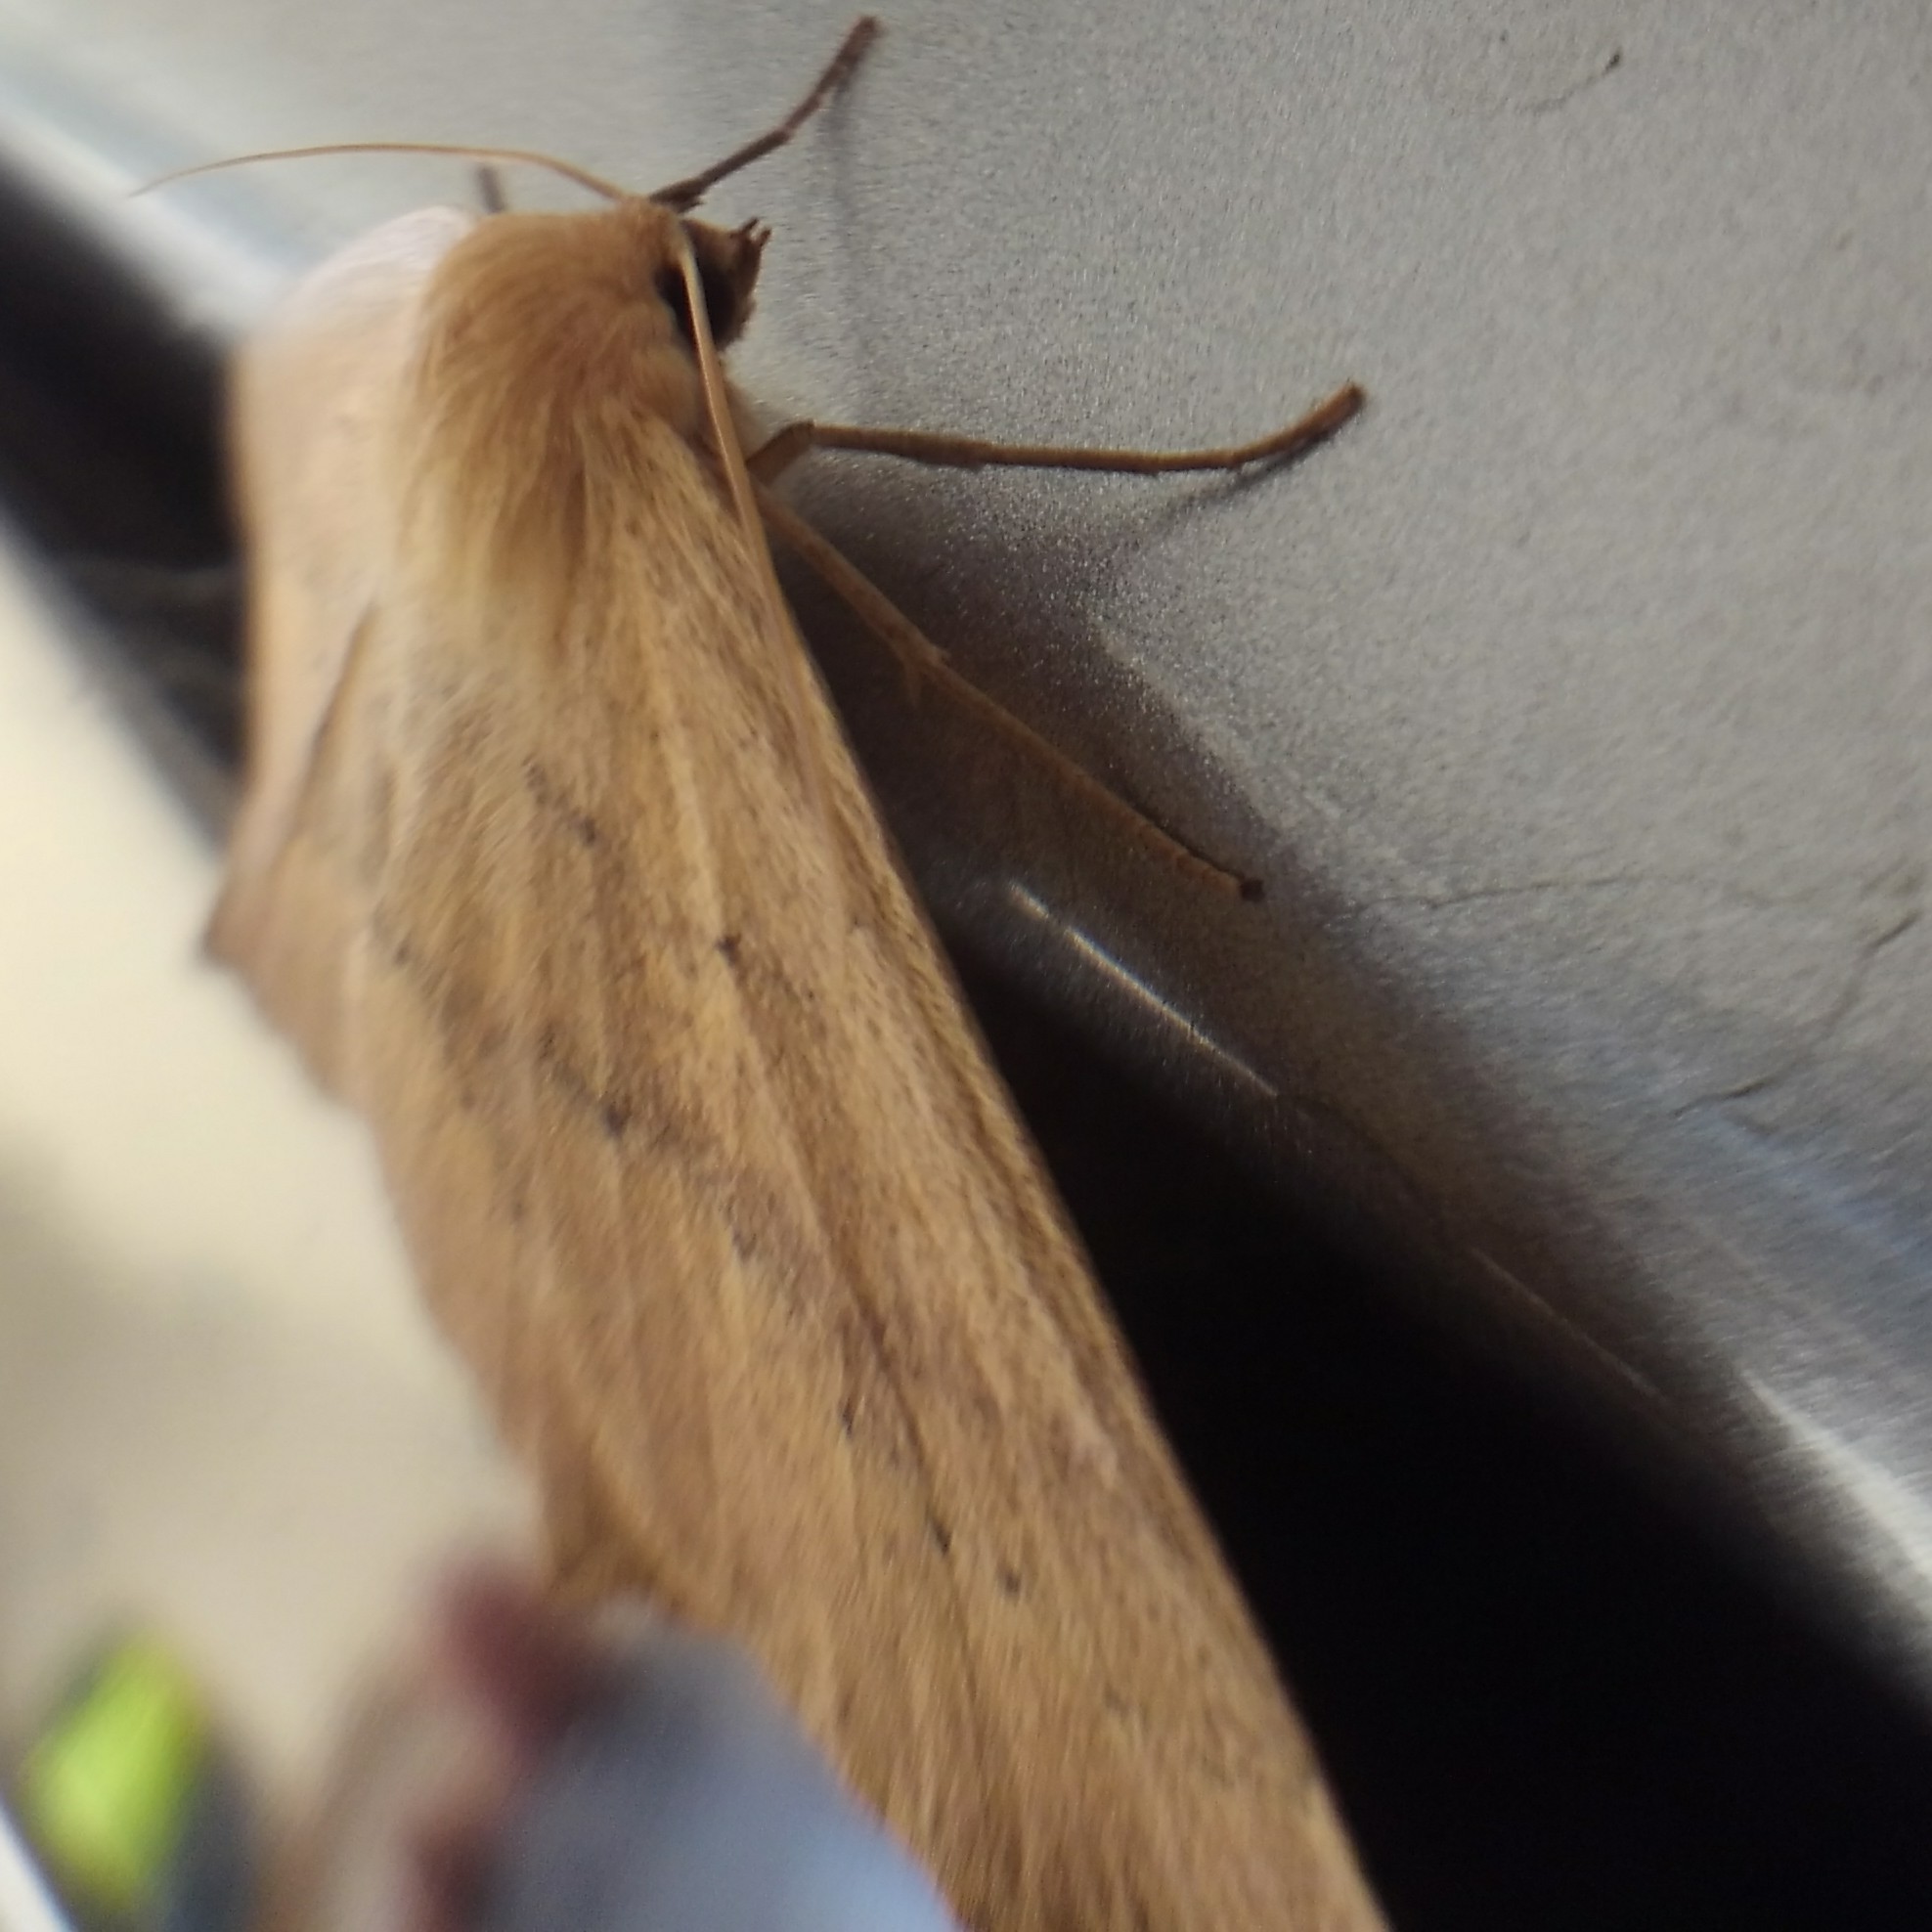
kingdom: Animalia
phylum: Arthropoda
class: Insecta
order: Lepidoptera
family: Geometridae
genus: Sabulodes
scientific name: Sabulodes aegrotata
